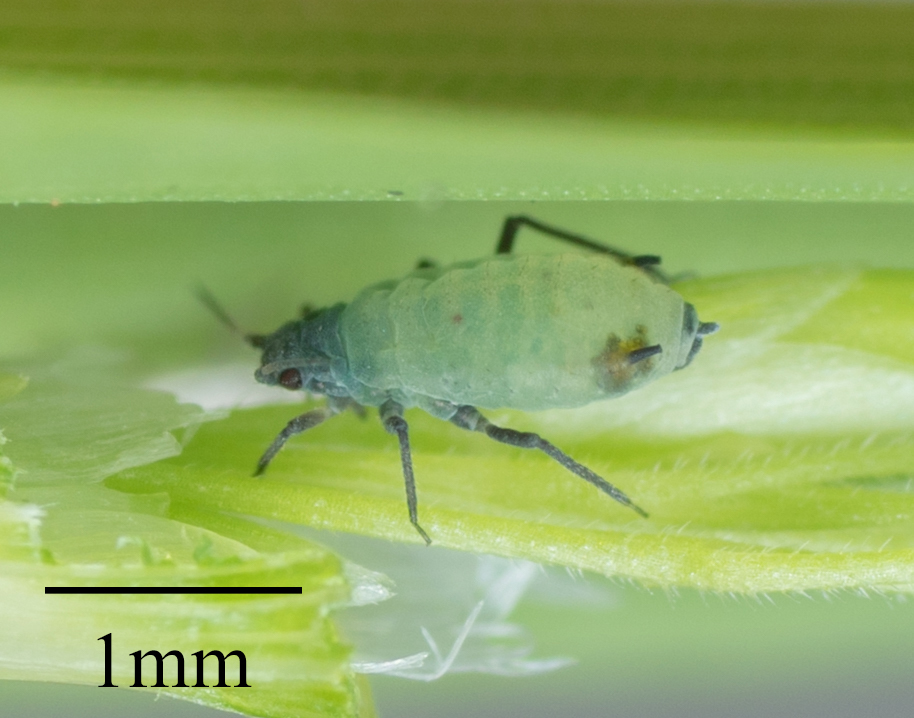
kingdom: Animalia
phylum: Arthropoda
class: Insecta
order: Hemiptera
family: Aphididae
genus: Rhopalosiphum
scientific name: Rhopalosiphum maidis
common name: Corn leaf aphid
